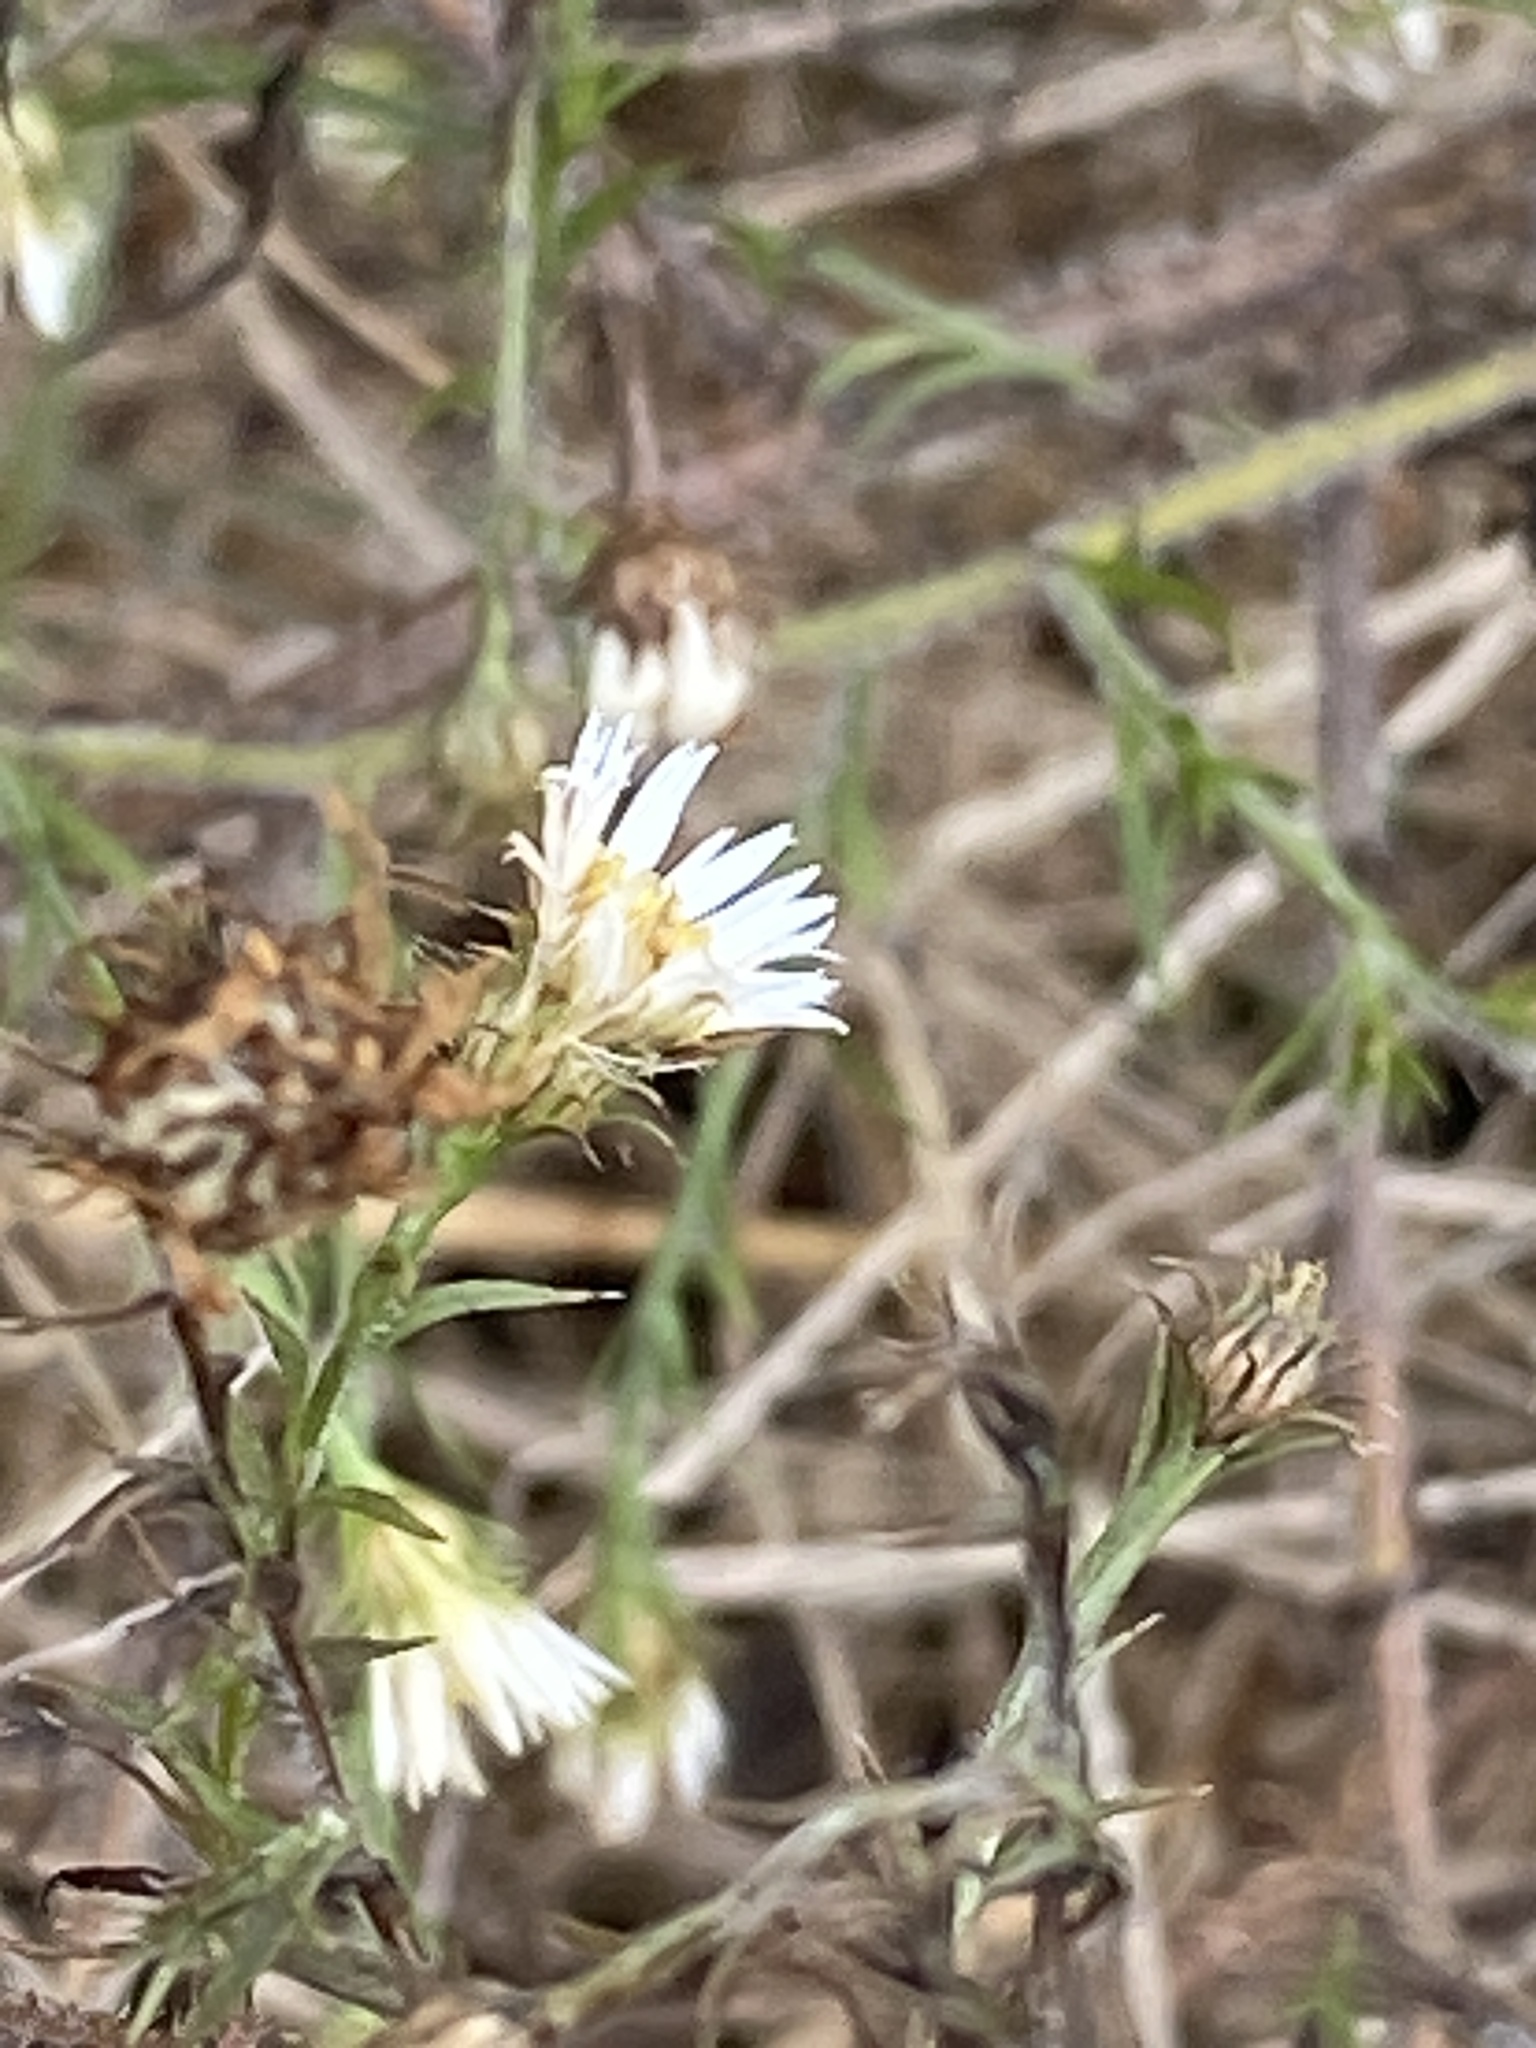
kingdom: Plantae
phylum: Tracheophyta
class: Magnoliopsida
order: Asterales
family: Asteraceae
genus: Symphyotrichum
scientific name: Symphyotrichum pilosum
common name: Awl aster
